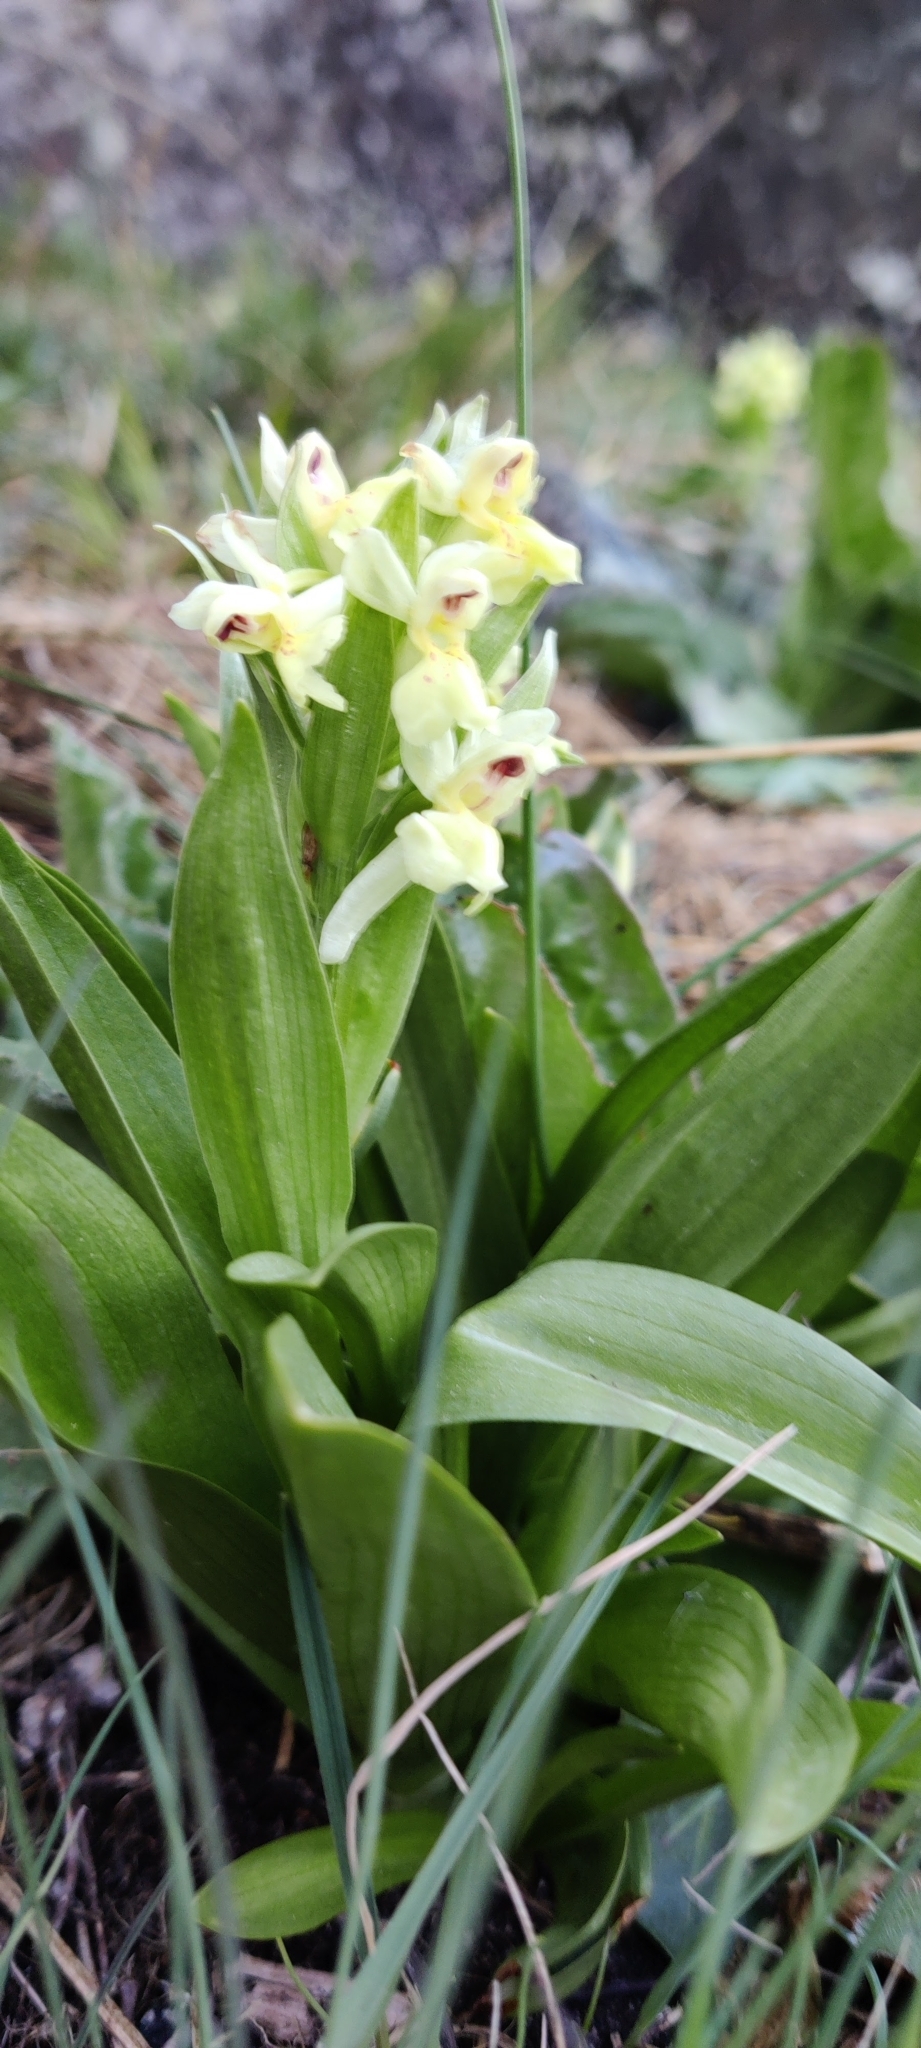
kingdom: Plantae
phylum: Tracheophyta
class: Liliopsida
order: Asparagales
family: Orchidaceae
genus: Dactylorhiza
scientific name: Dactylorhiza sambucina
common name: Elder-flowered orchid
